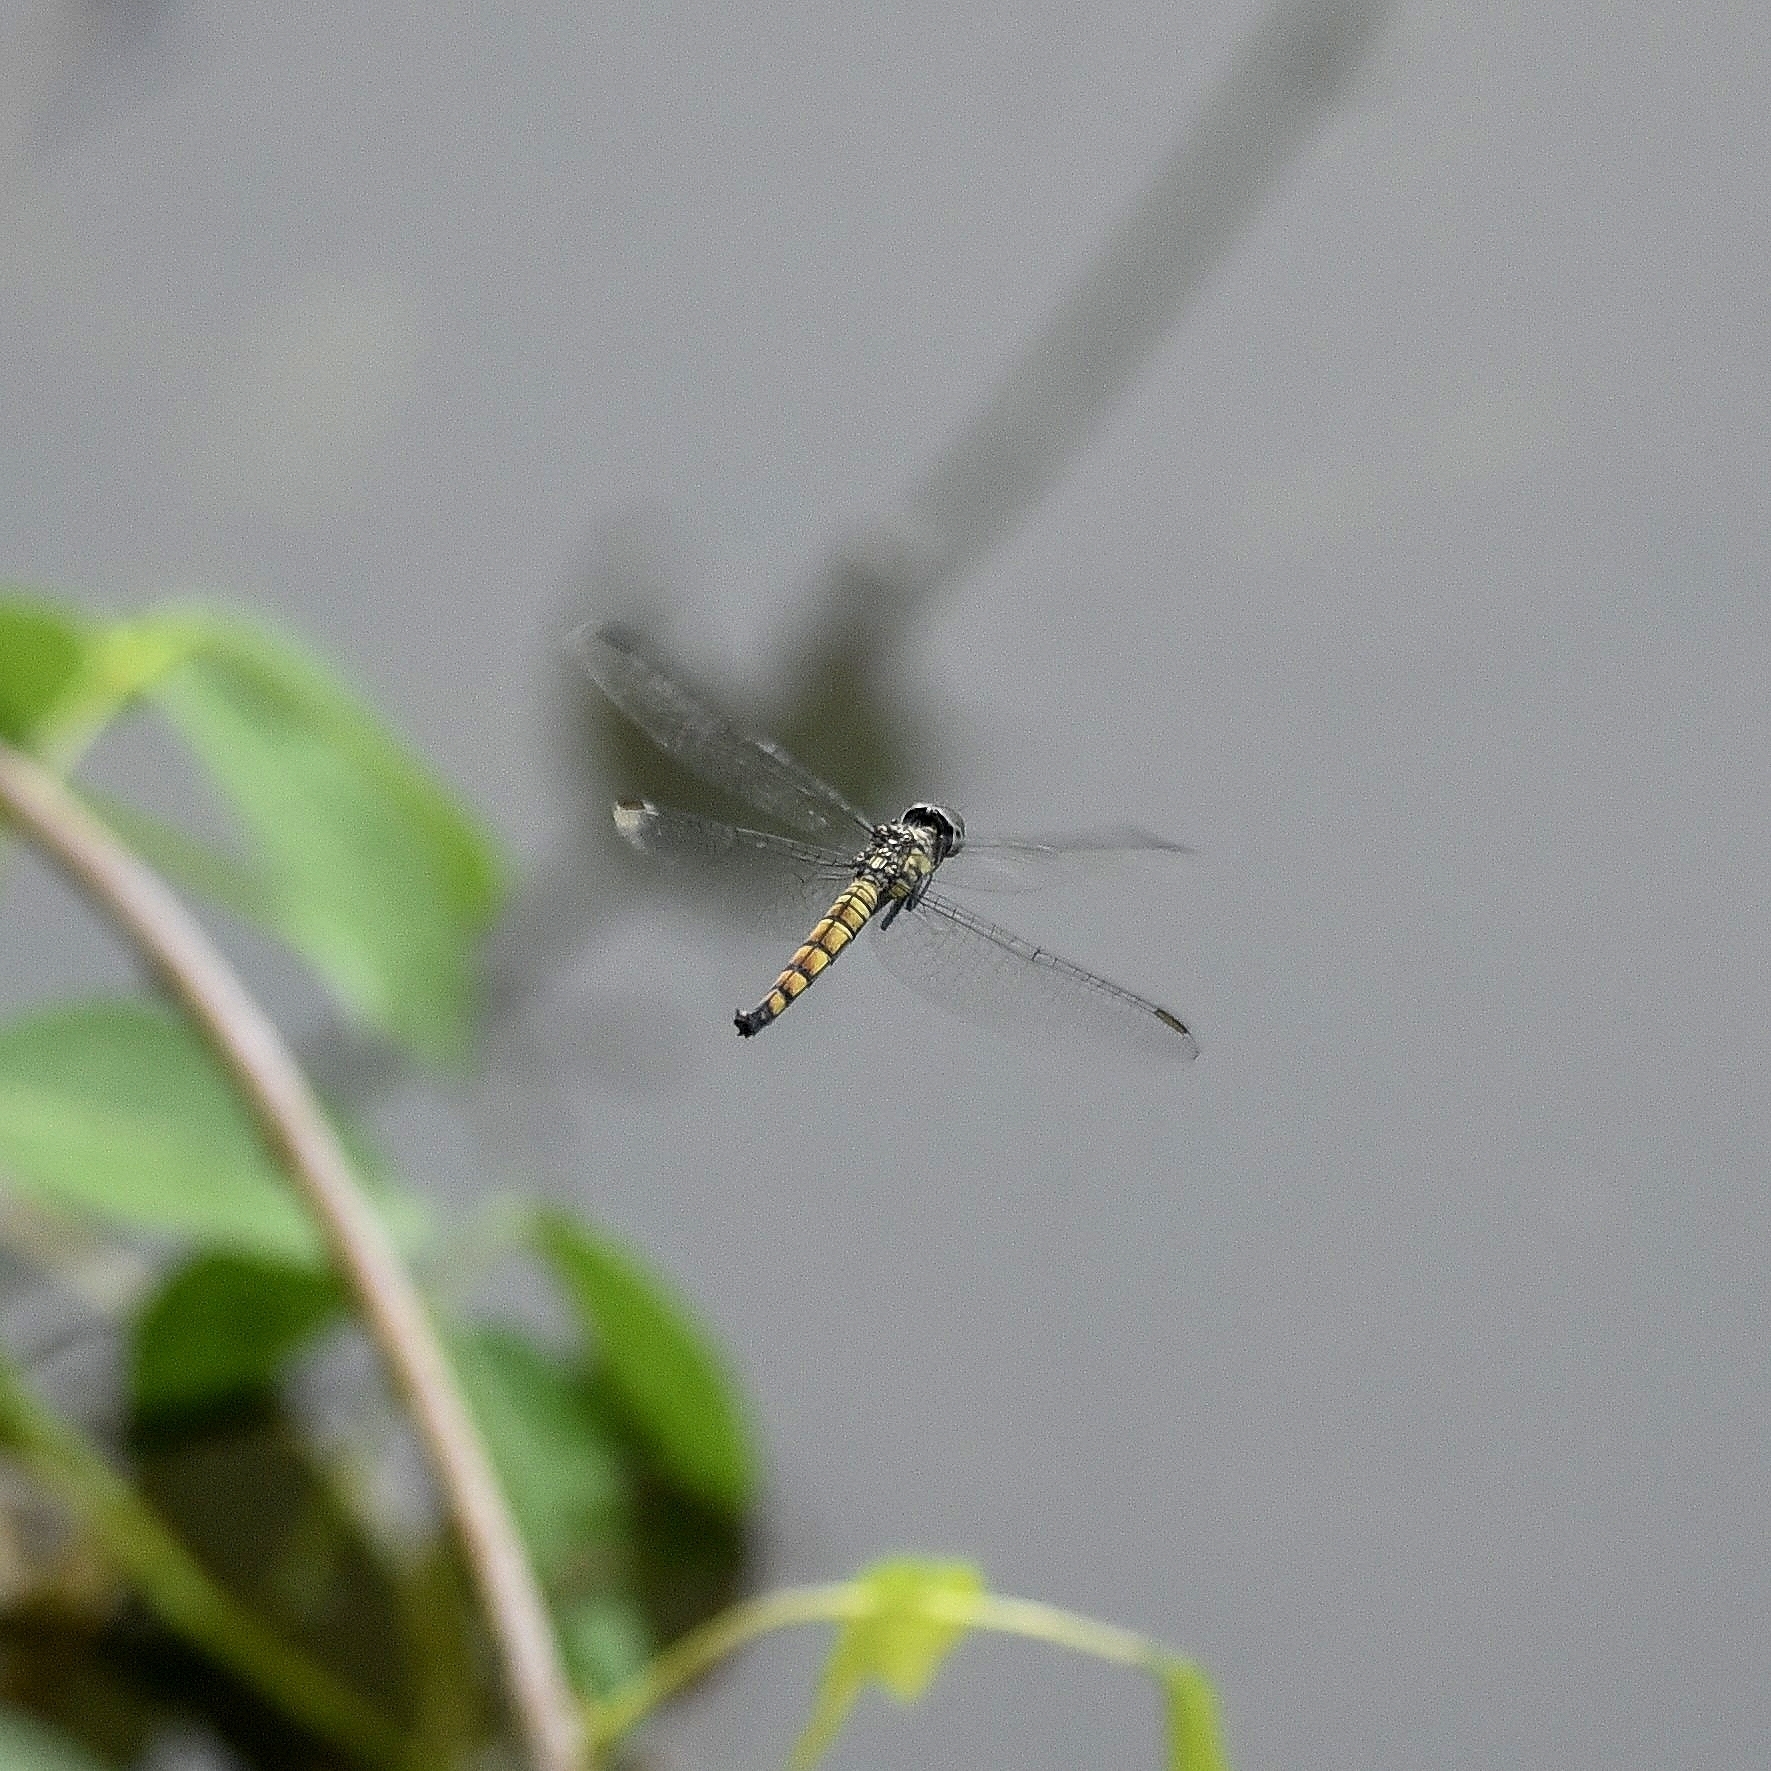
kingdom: Animalia
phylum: Arthropoda
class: Insecta
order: Odonata
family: Libellulidae
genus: Brachydiplax
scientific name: Brachydiplax chalybea
